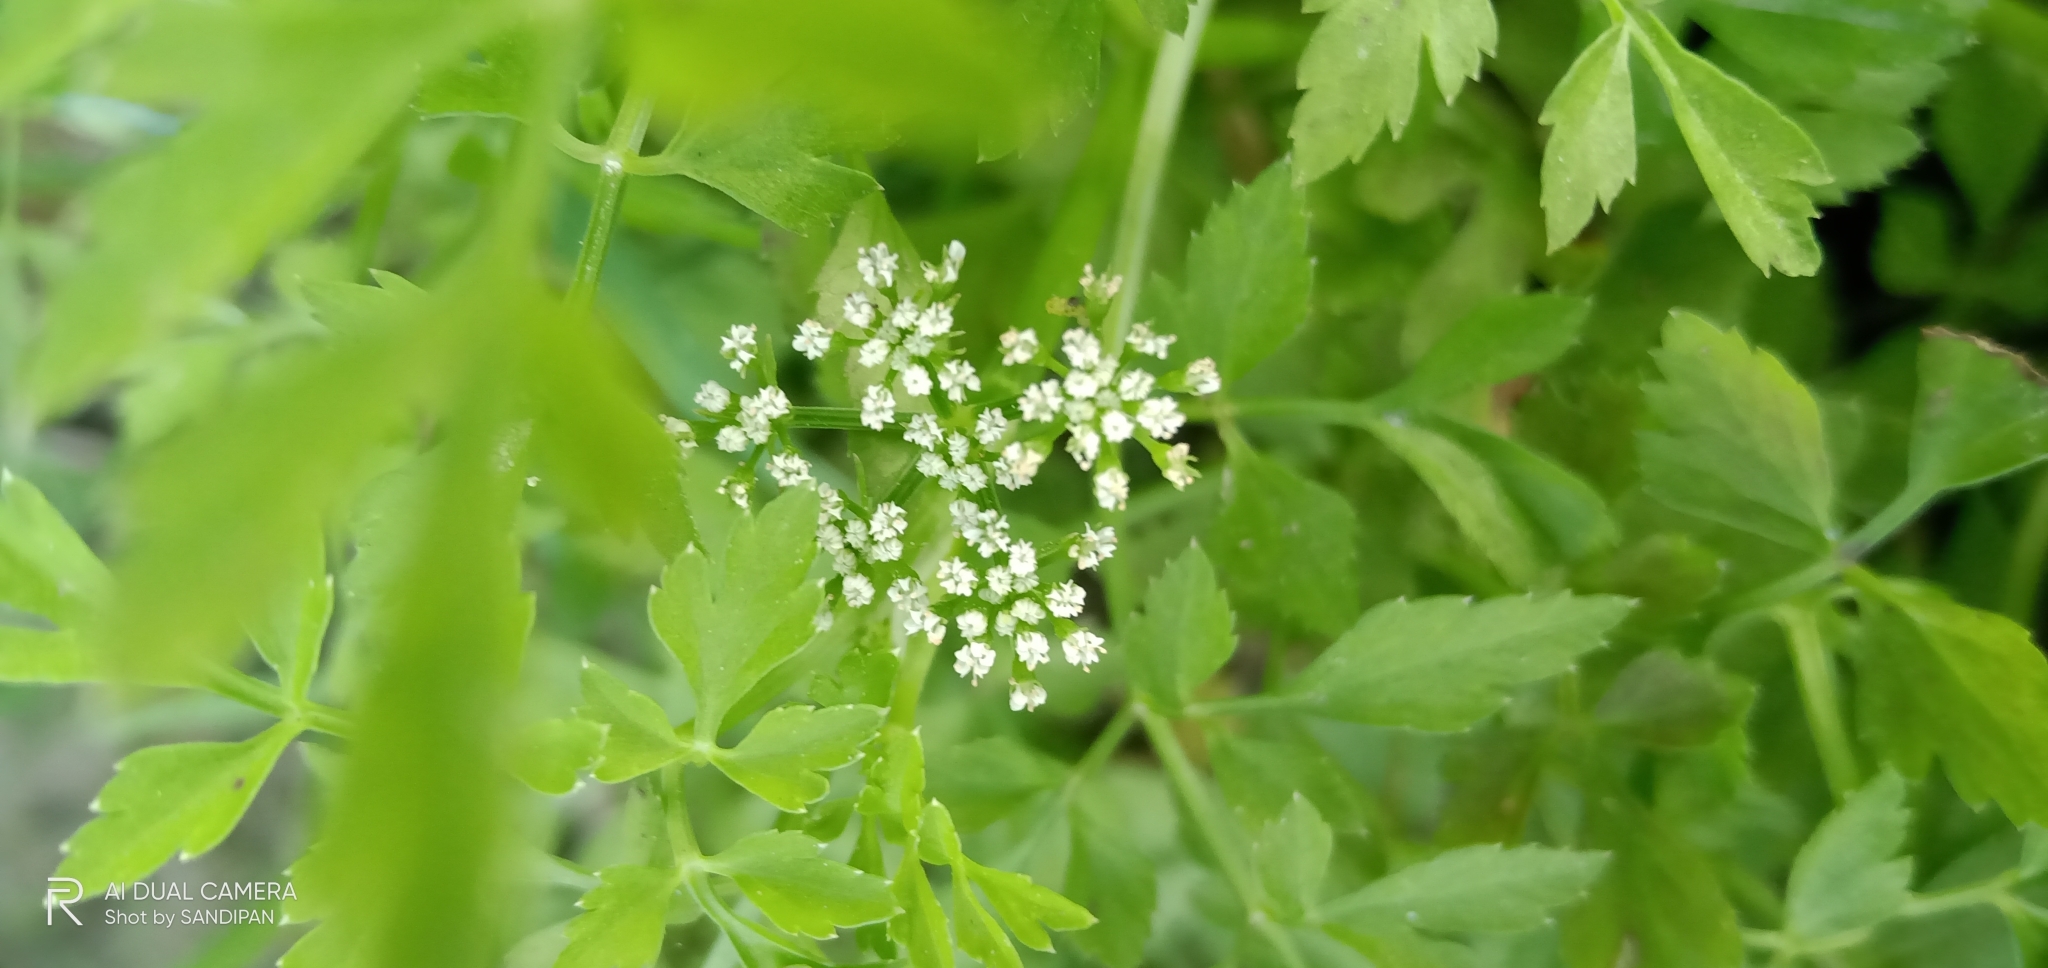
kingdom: Plantae
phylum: Tracheophyta
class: Magnoliopsida
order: Apiales
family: Apiaceae
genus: Apium
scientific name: Apium graveolens
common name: Wild celery
